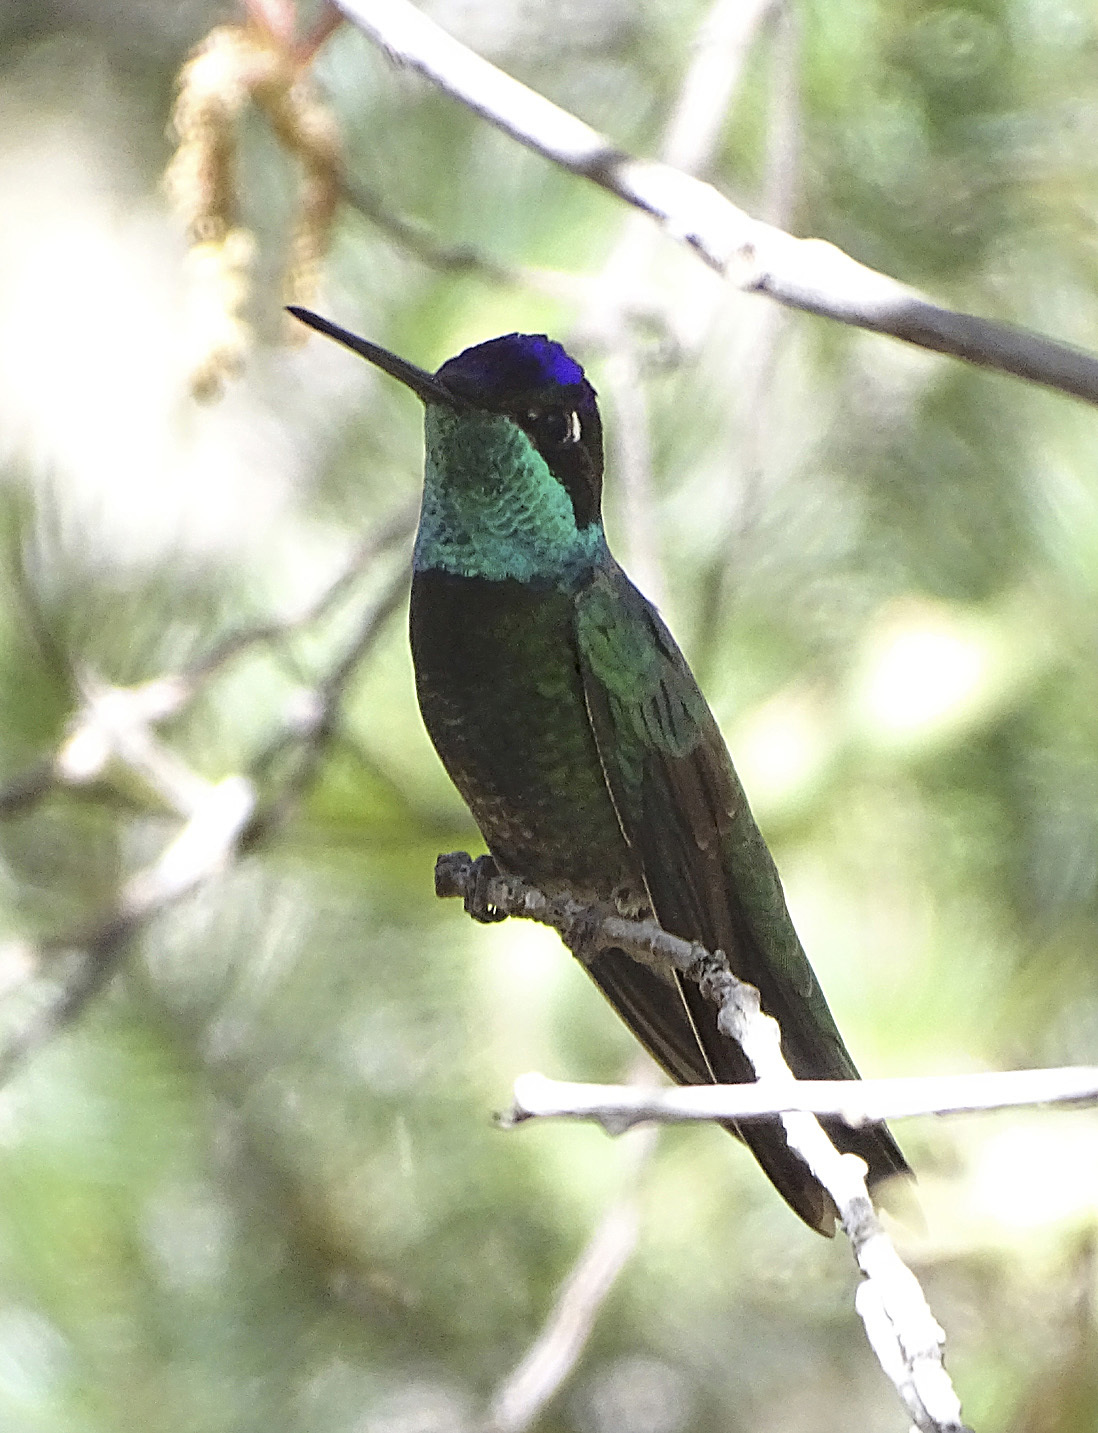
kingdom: Animalia
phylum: Chordata
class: Aves
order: Apodiformes
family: Trochilidae
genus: Eugenes
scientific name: Eugenes fulgens
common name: Magnificent hummingbird
